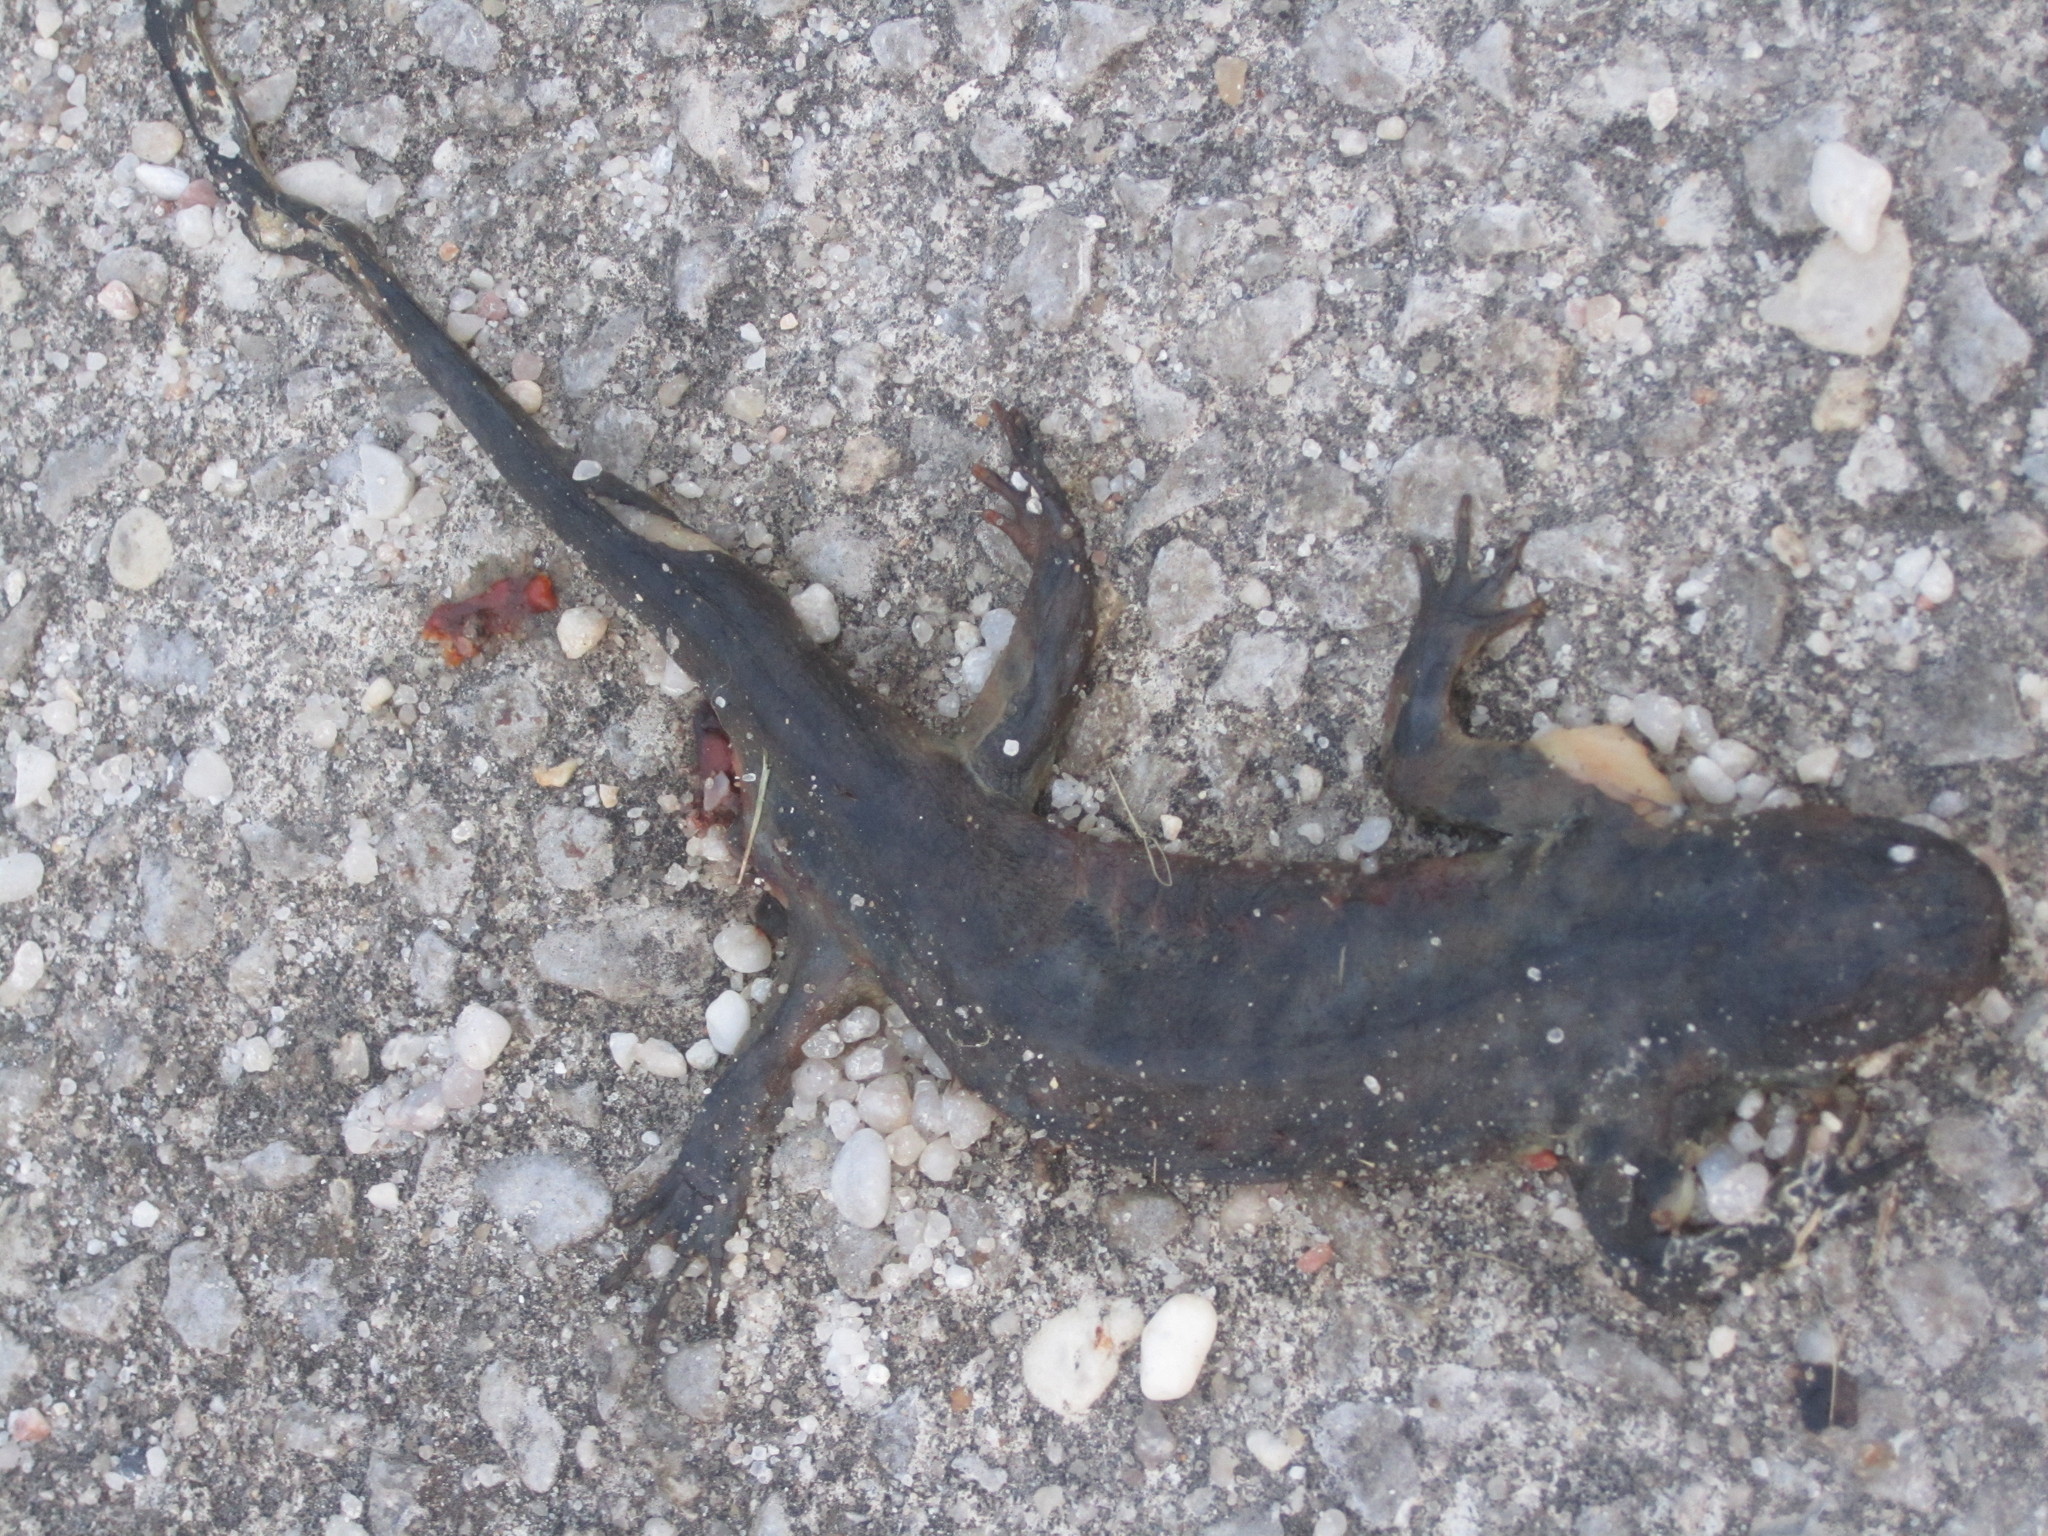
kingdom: Animalia
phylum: Chordata
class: Amphibia
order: Caudata
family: Salamandridae
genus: Pleurodeles
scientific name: Pleurodeles waltl
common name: Iberian ribbed newt
